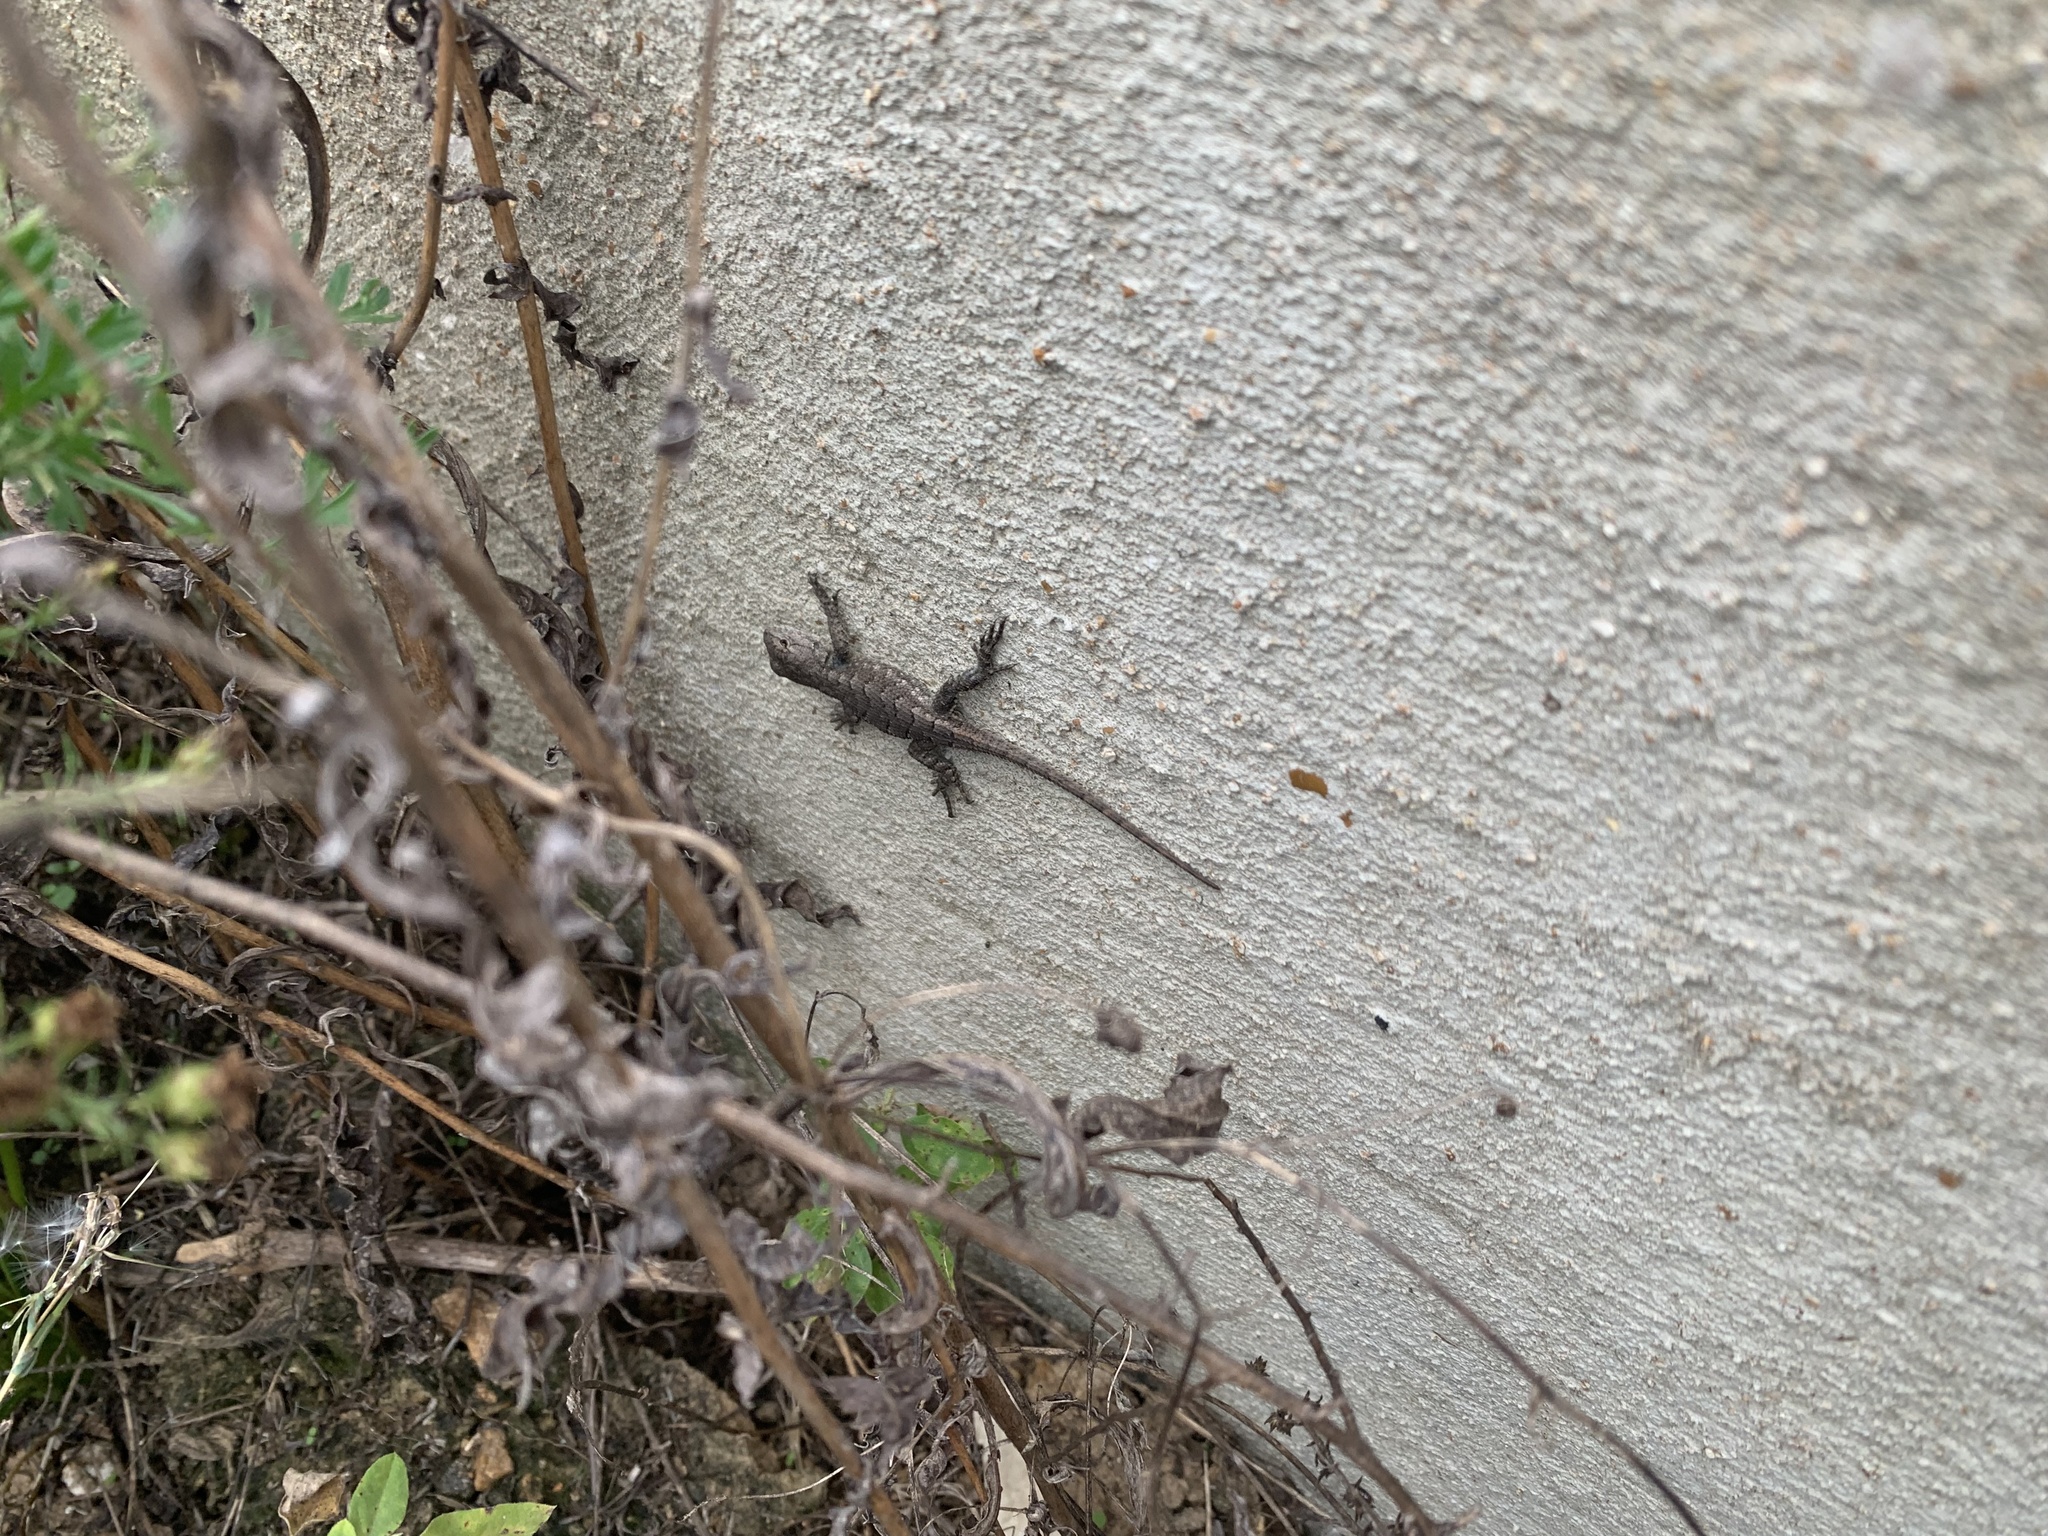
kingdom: Animalia
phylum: Chordata
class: Squamata
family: Phrynosomatidae
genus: Sceloporus
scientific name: Sceloporus consobrinus
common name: Southern prairie lizard
